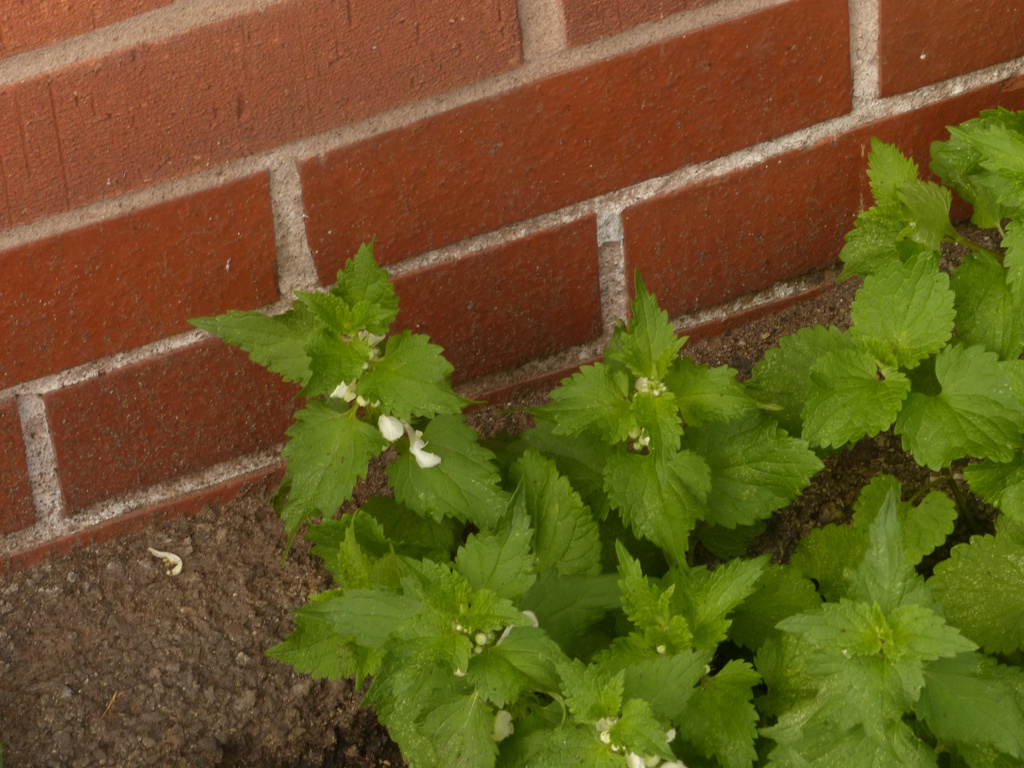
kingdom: Plantae
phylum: Tracheophyta
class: Magnoliopsida
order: Lamiales
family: Lamiaceae
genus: Lamium
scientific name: Lamium album
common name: White dead-nettle
